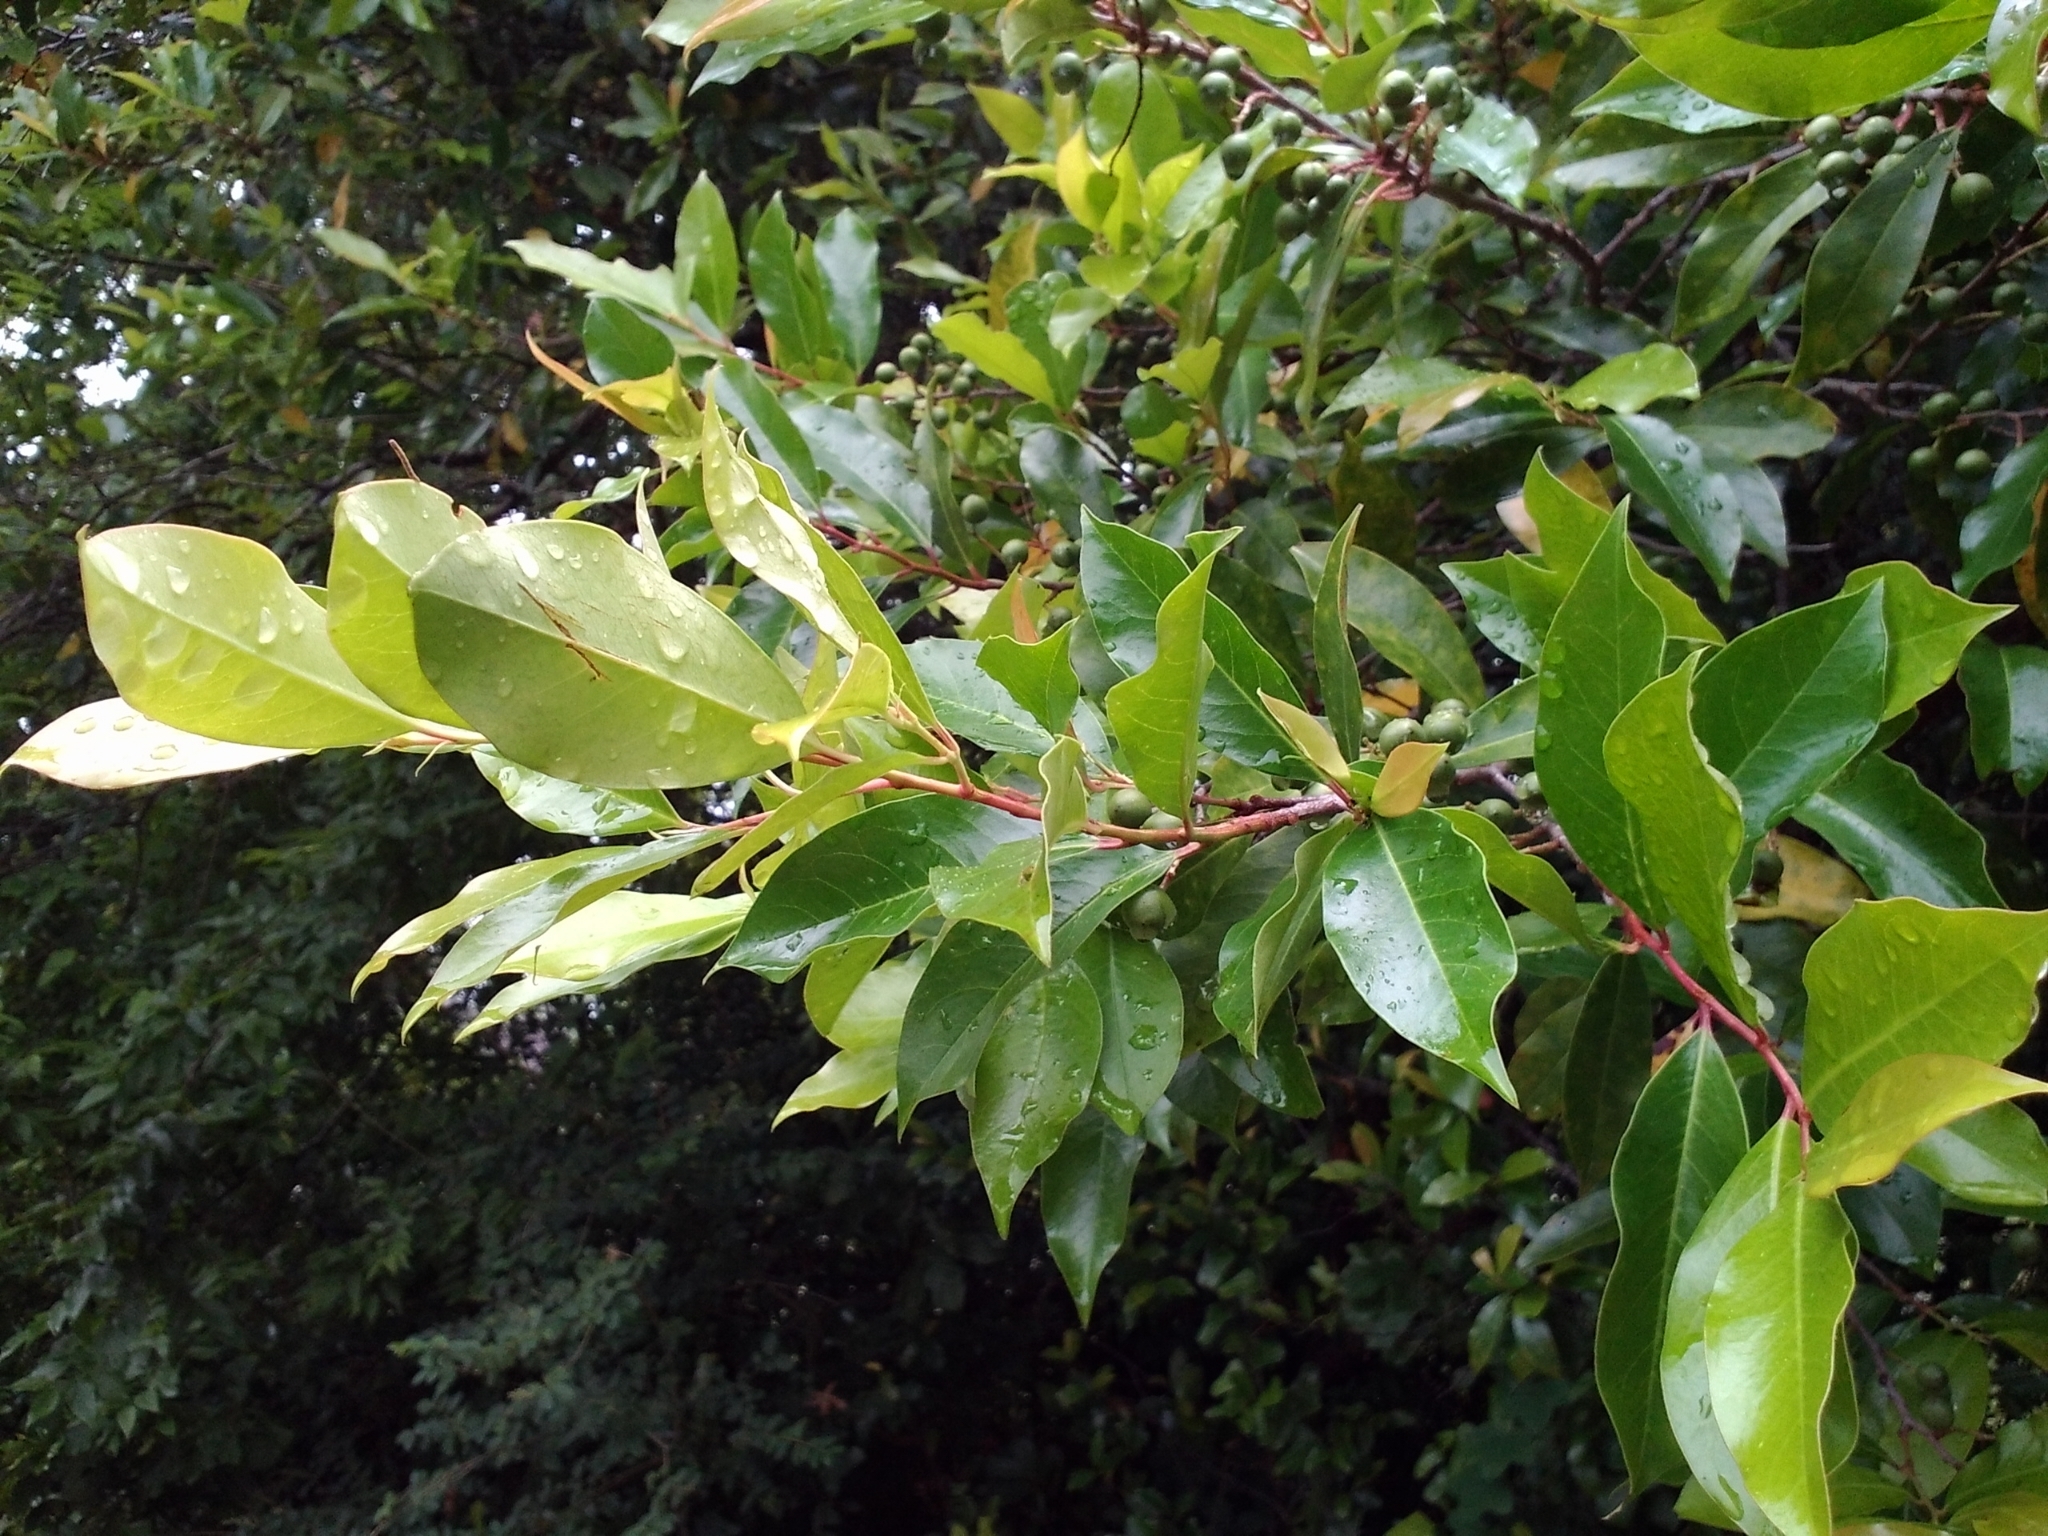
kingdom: Plantae
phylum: Tracheophyta
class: Magnoliopsida
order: Rosales
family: Rosaceae
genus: Prunus
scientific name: Prunus caroliniana
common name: Carolina laurel cherry
